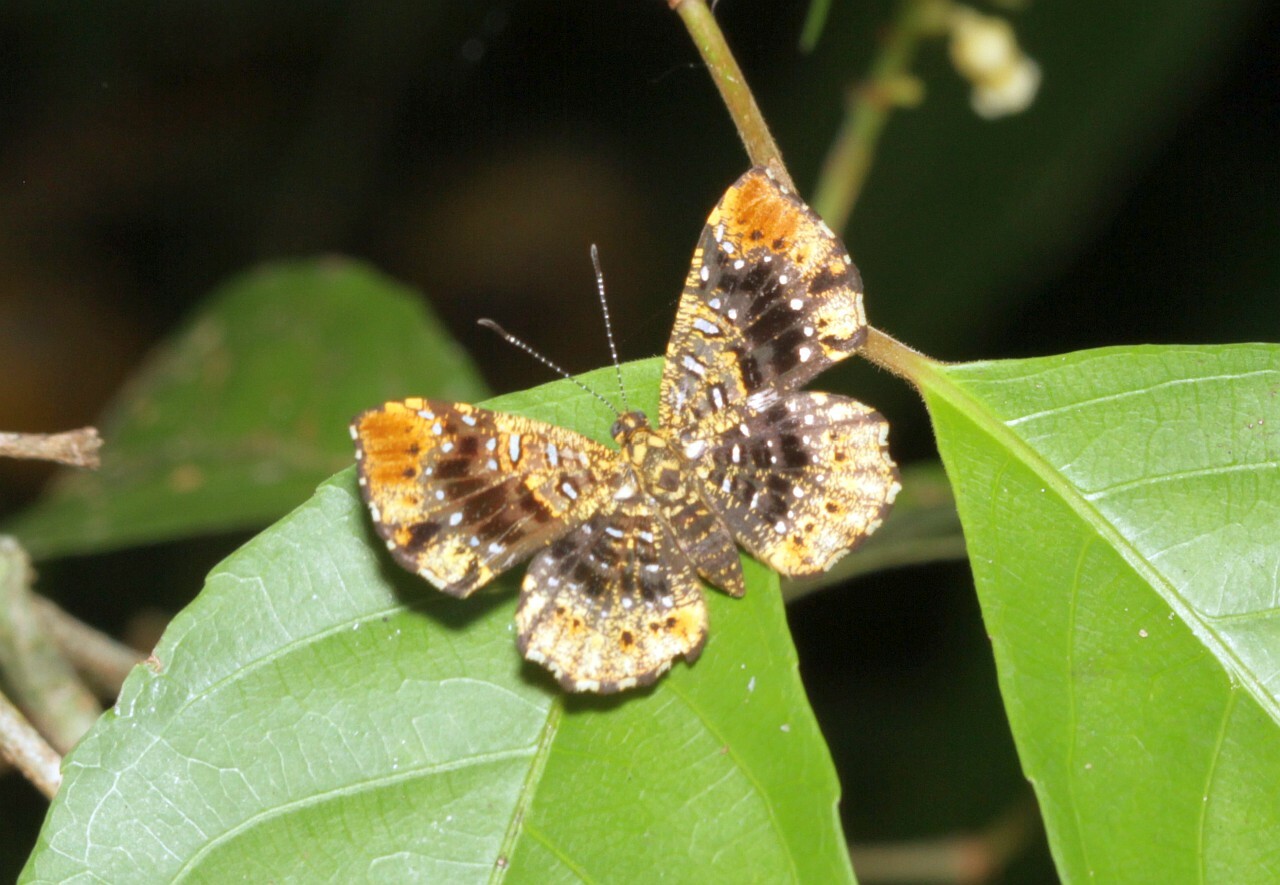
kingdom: Animalia
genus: Calydna
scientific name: Calydna carneia
